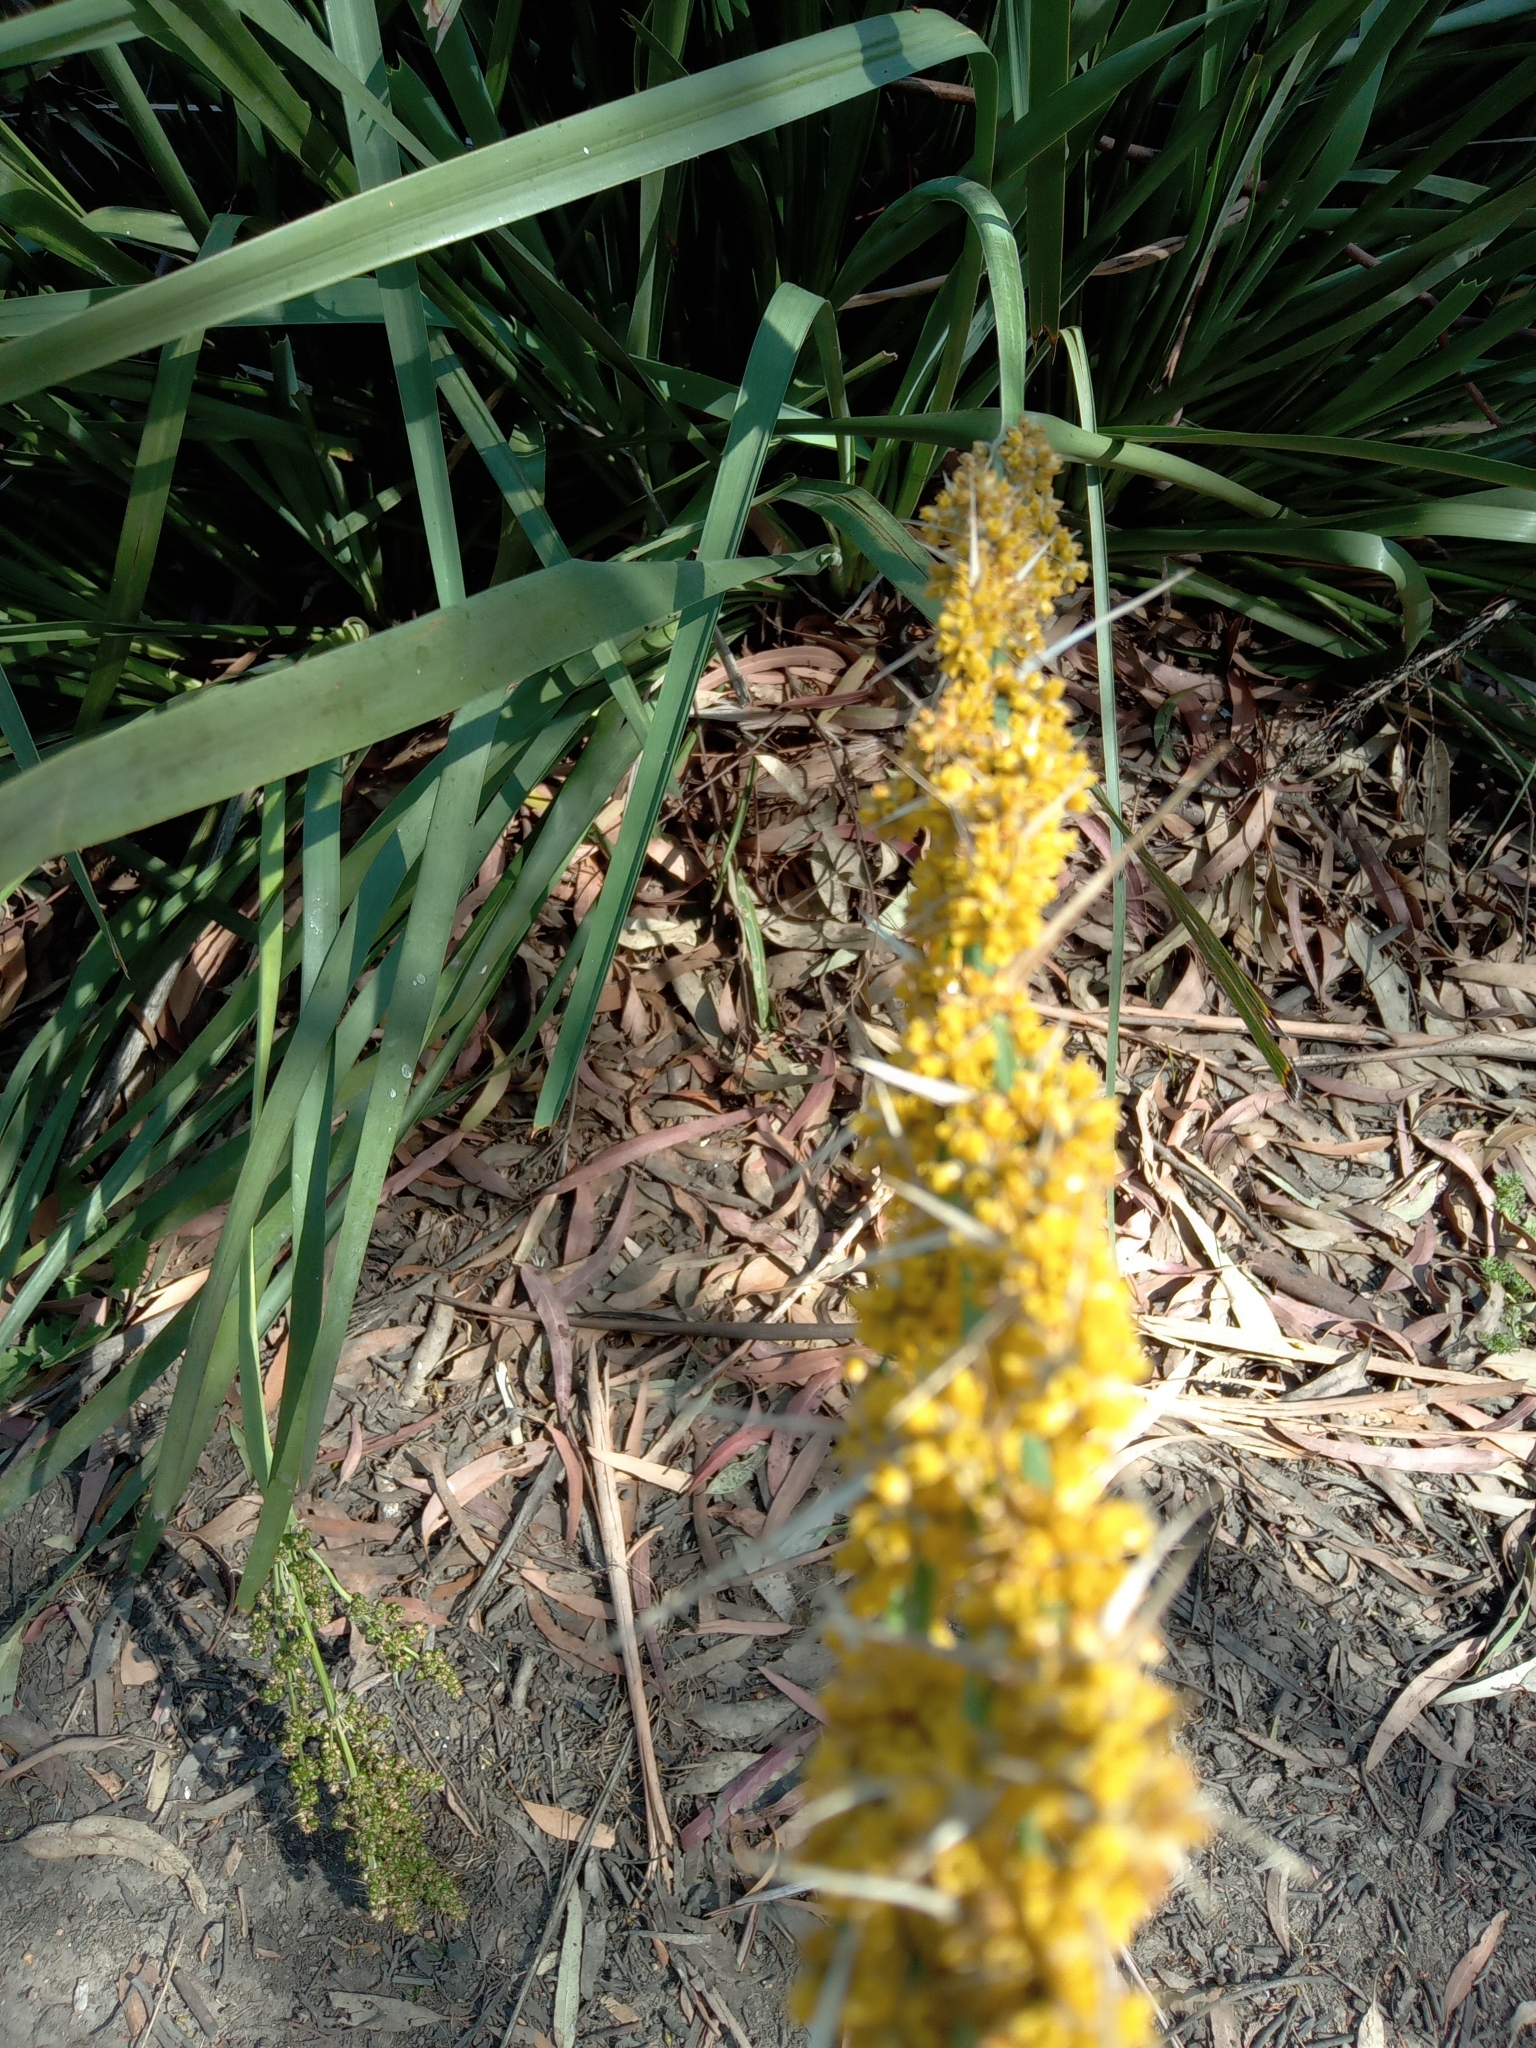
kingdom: Plantae
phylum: Tracheophyta
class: Liliopsida
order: Asparagales
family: Asparagaceae
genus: Lomandra
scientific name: Lomandra longifolia
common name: Longleaf mat-rush
